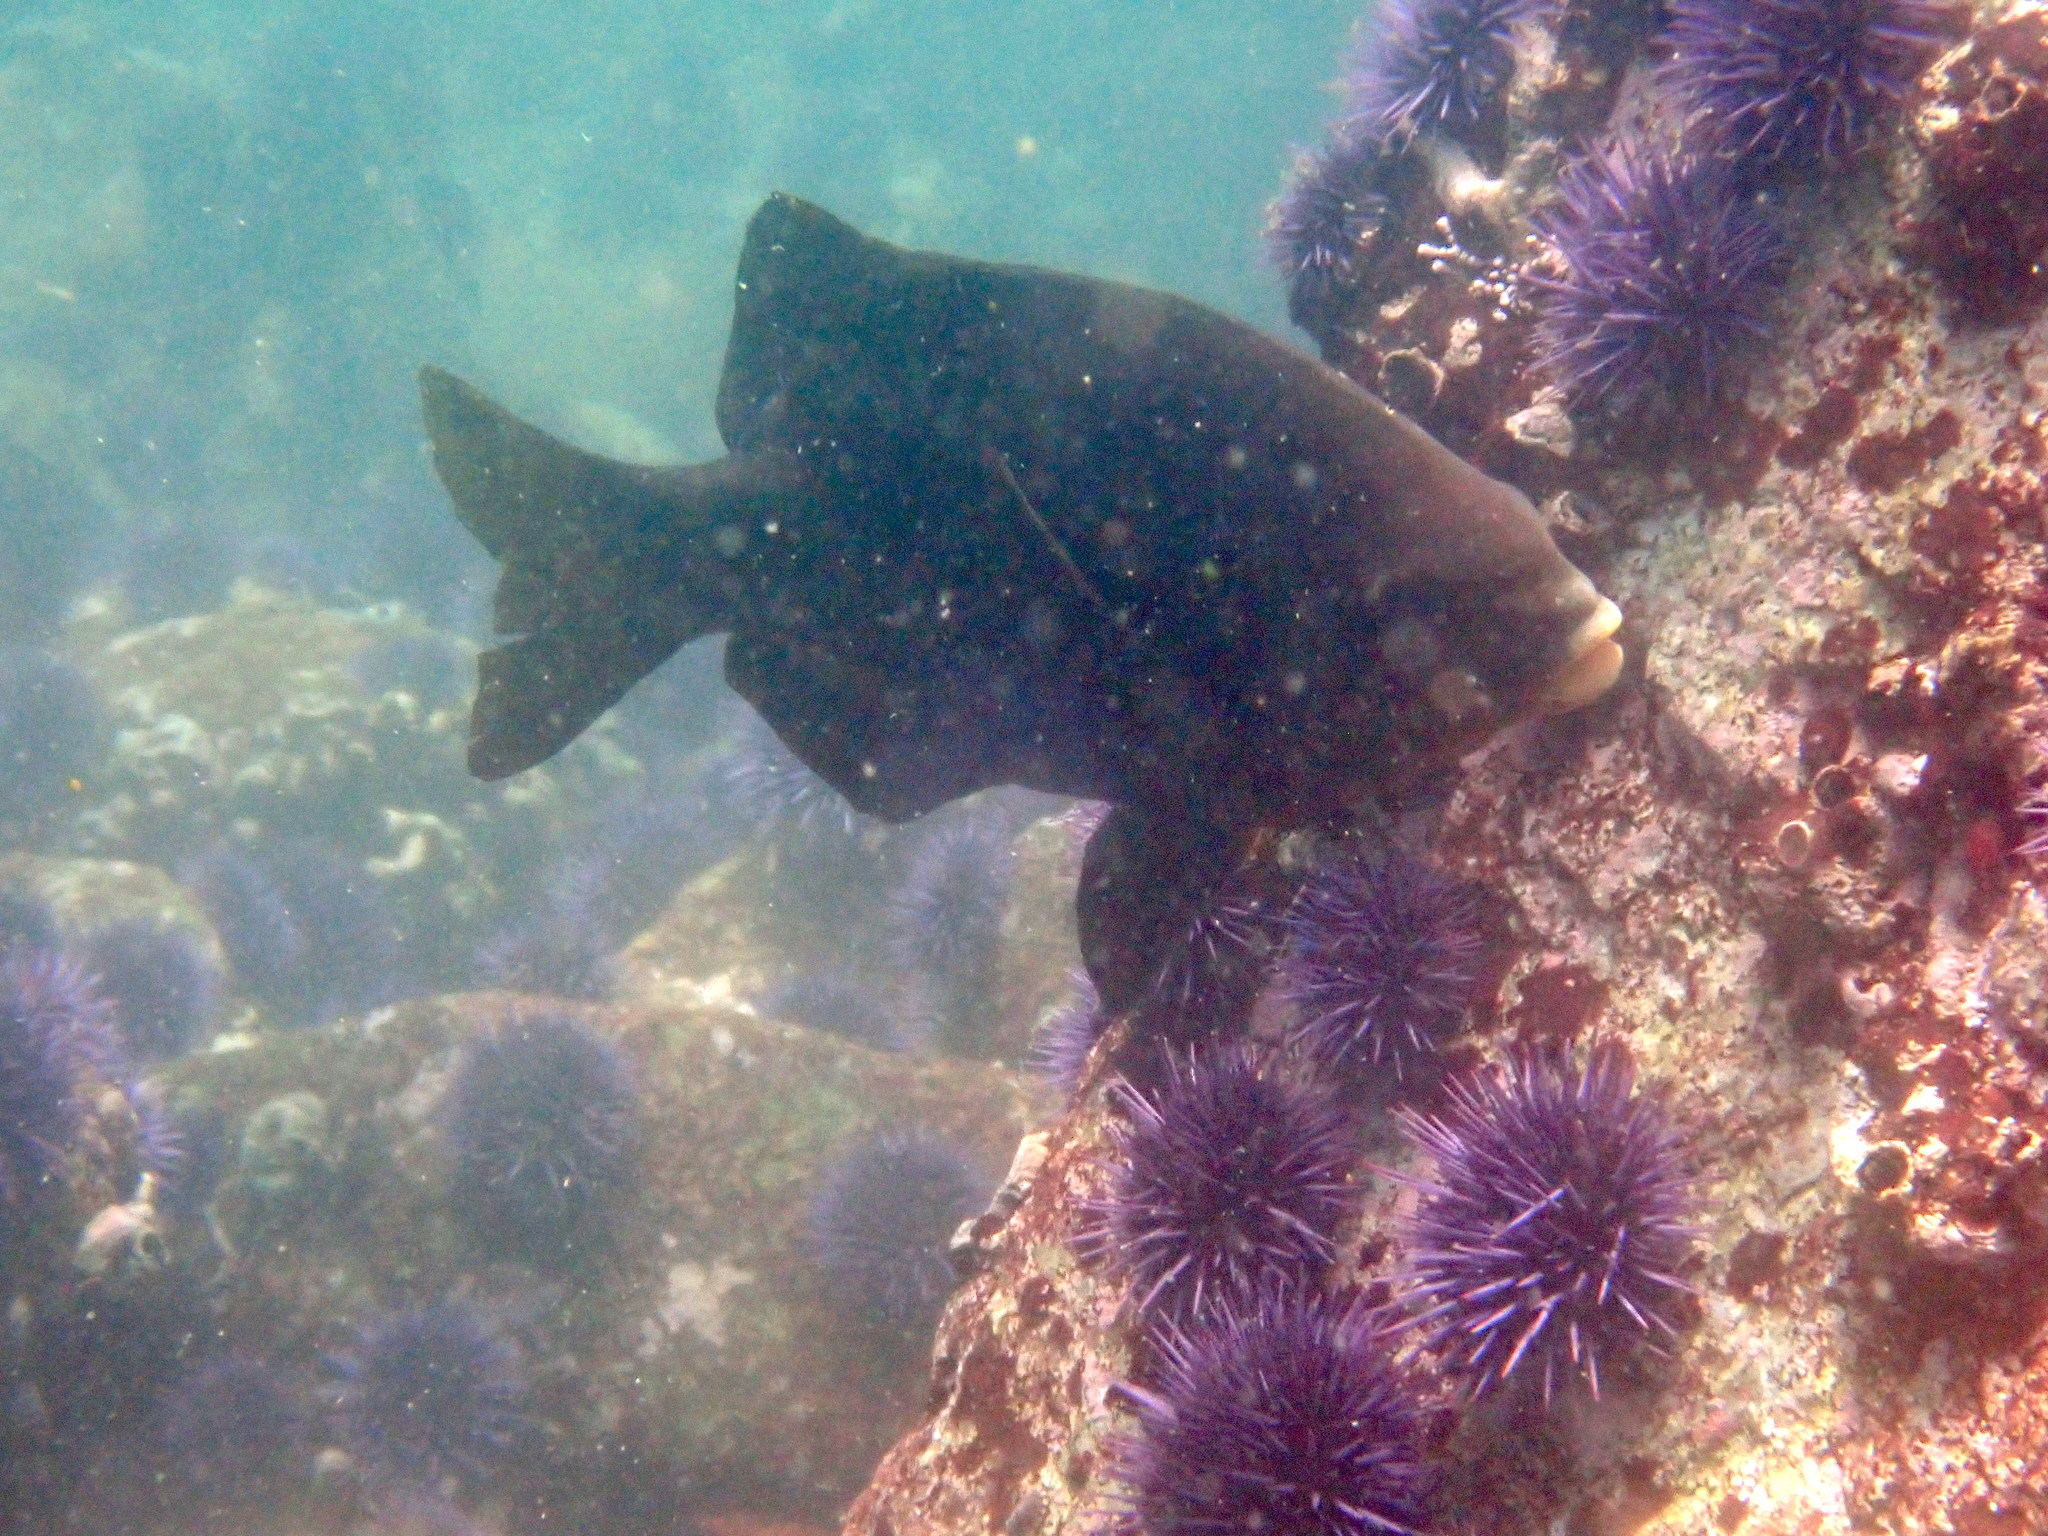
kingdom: Animalia
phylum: Chordata
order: Perciformes
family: Embiotocidae
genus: Embiotoca
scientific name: Embiotoca jacksoni
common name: Black perch
